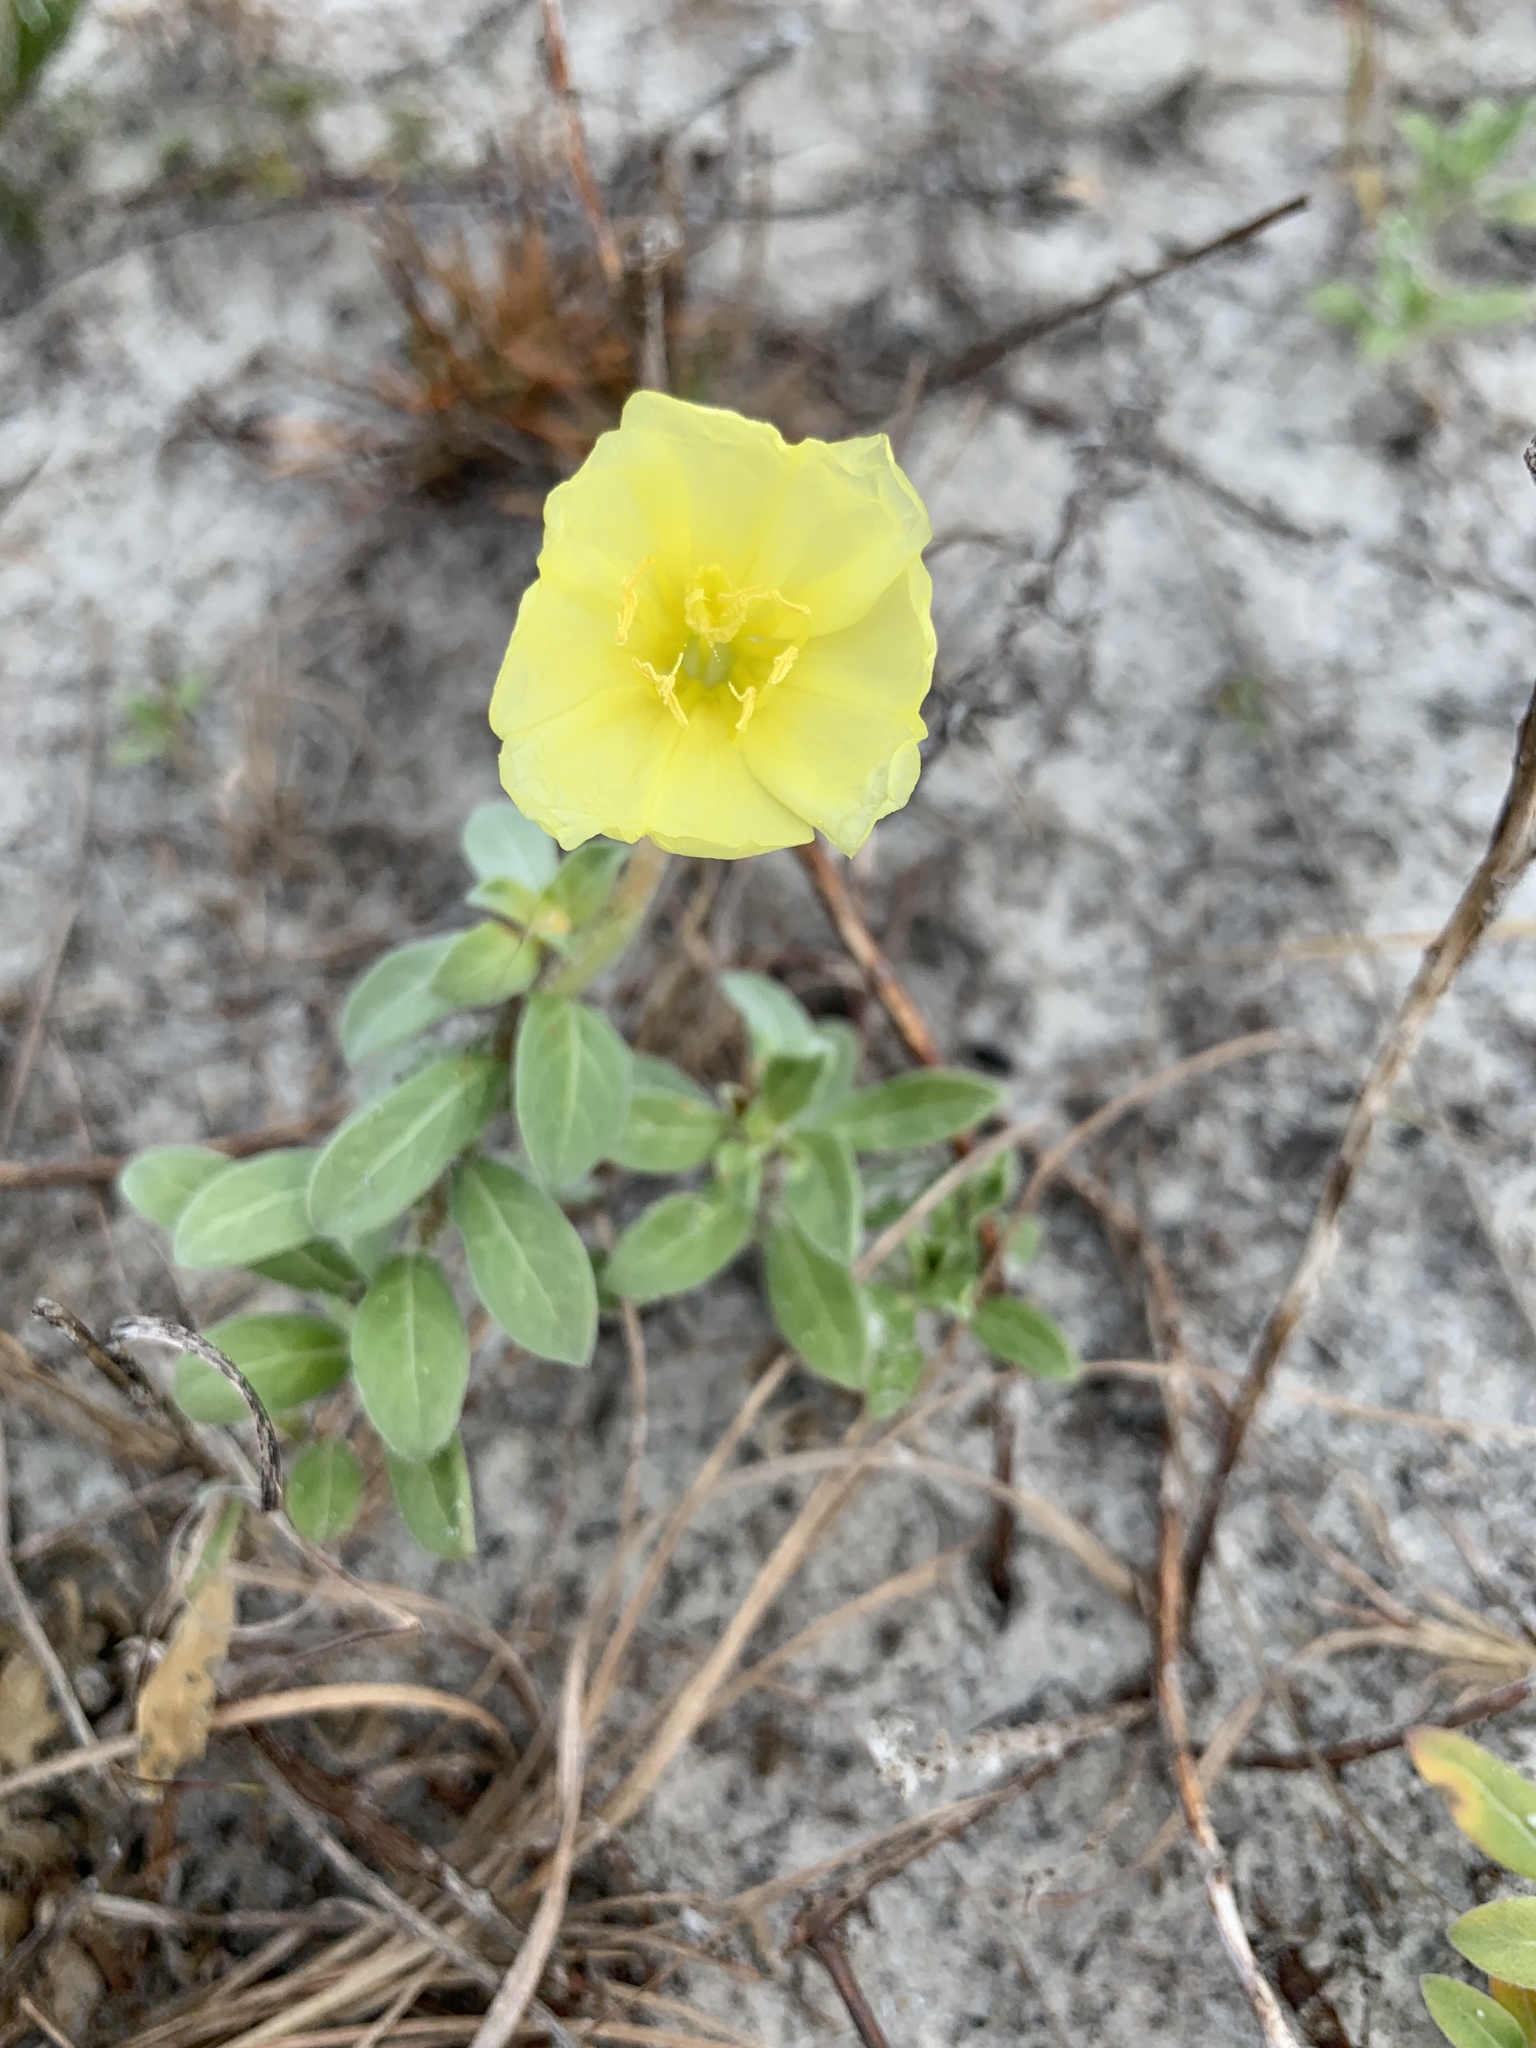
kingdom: Plantae
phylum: Tracheophyta
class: Magnoliopsida
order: Myrtales
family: Onagraceae
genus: Oenothera
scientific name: Oenothera drummondii
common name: Beach evening-primrose
